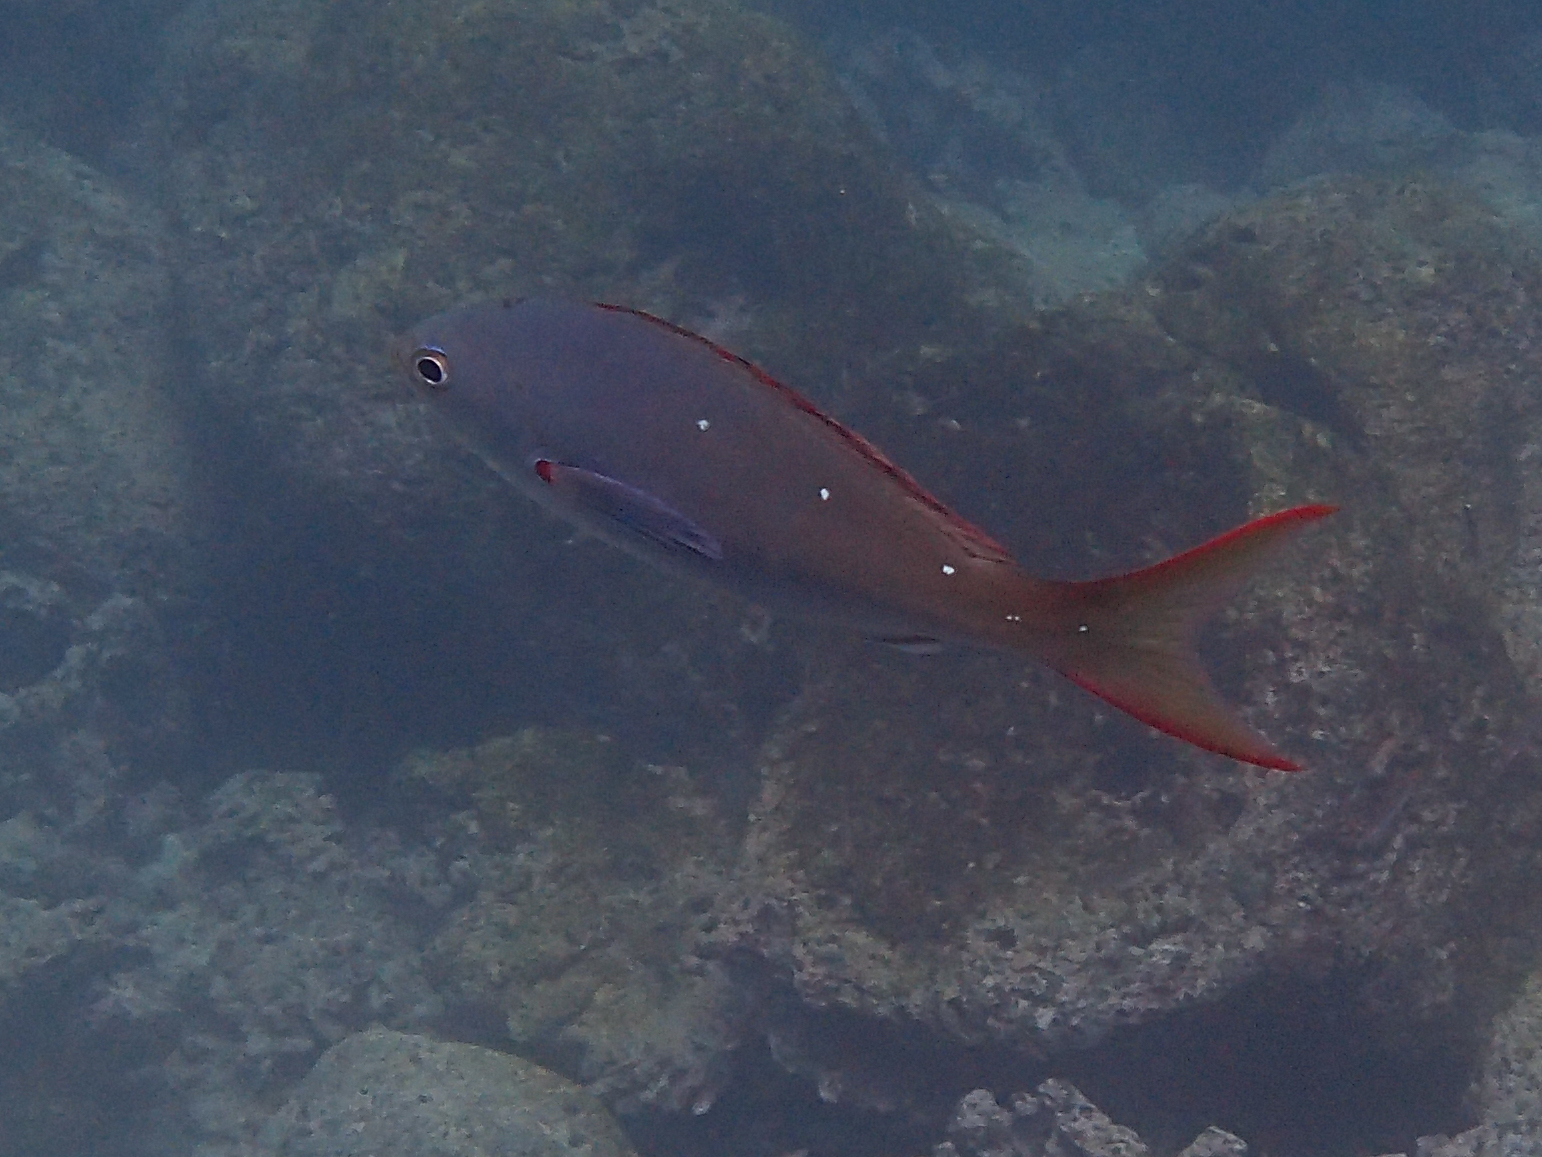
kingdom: Animalia
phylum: Chordata
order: Perciformes
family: Serranidae
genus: Paranthias
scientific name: Paranthias colonus
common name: Pacific creole-fish
